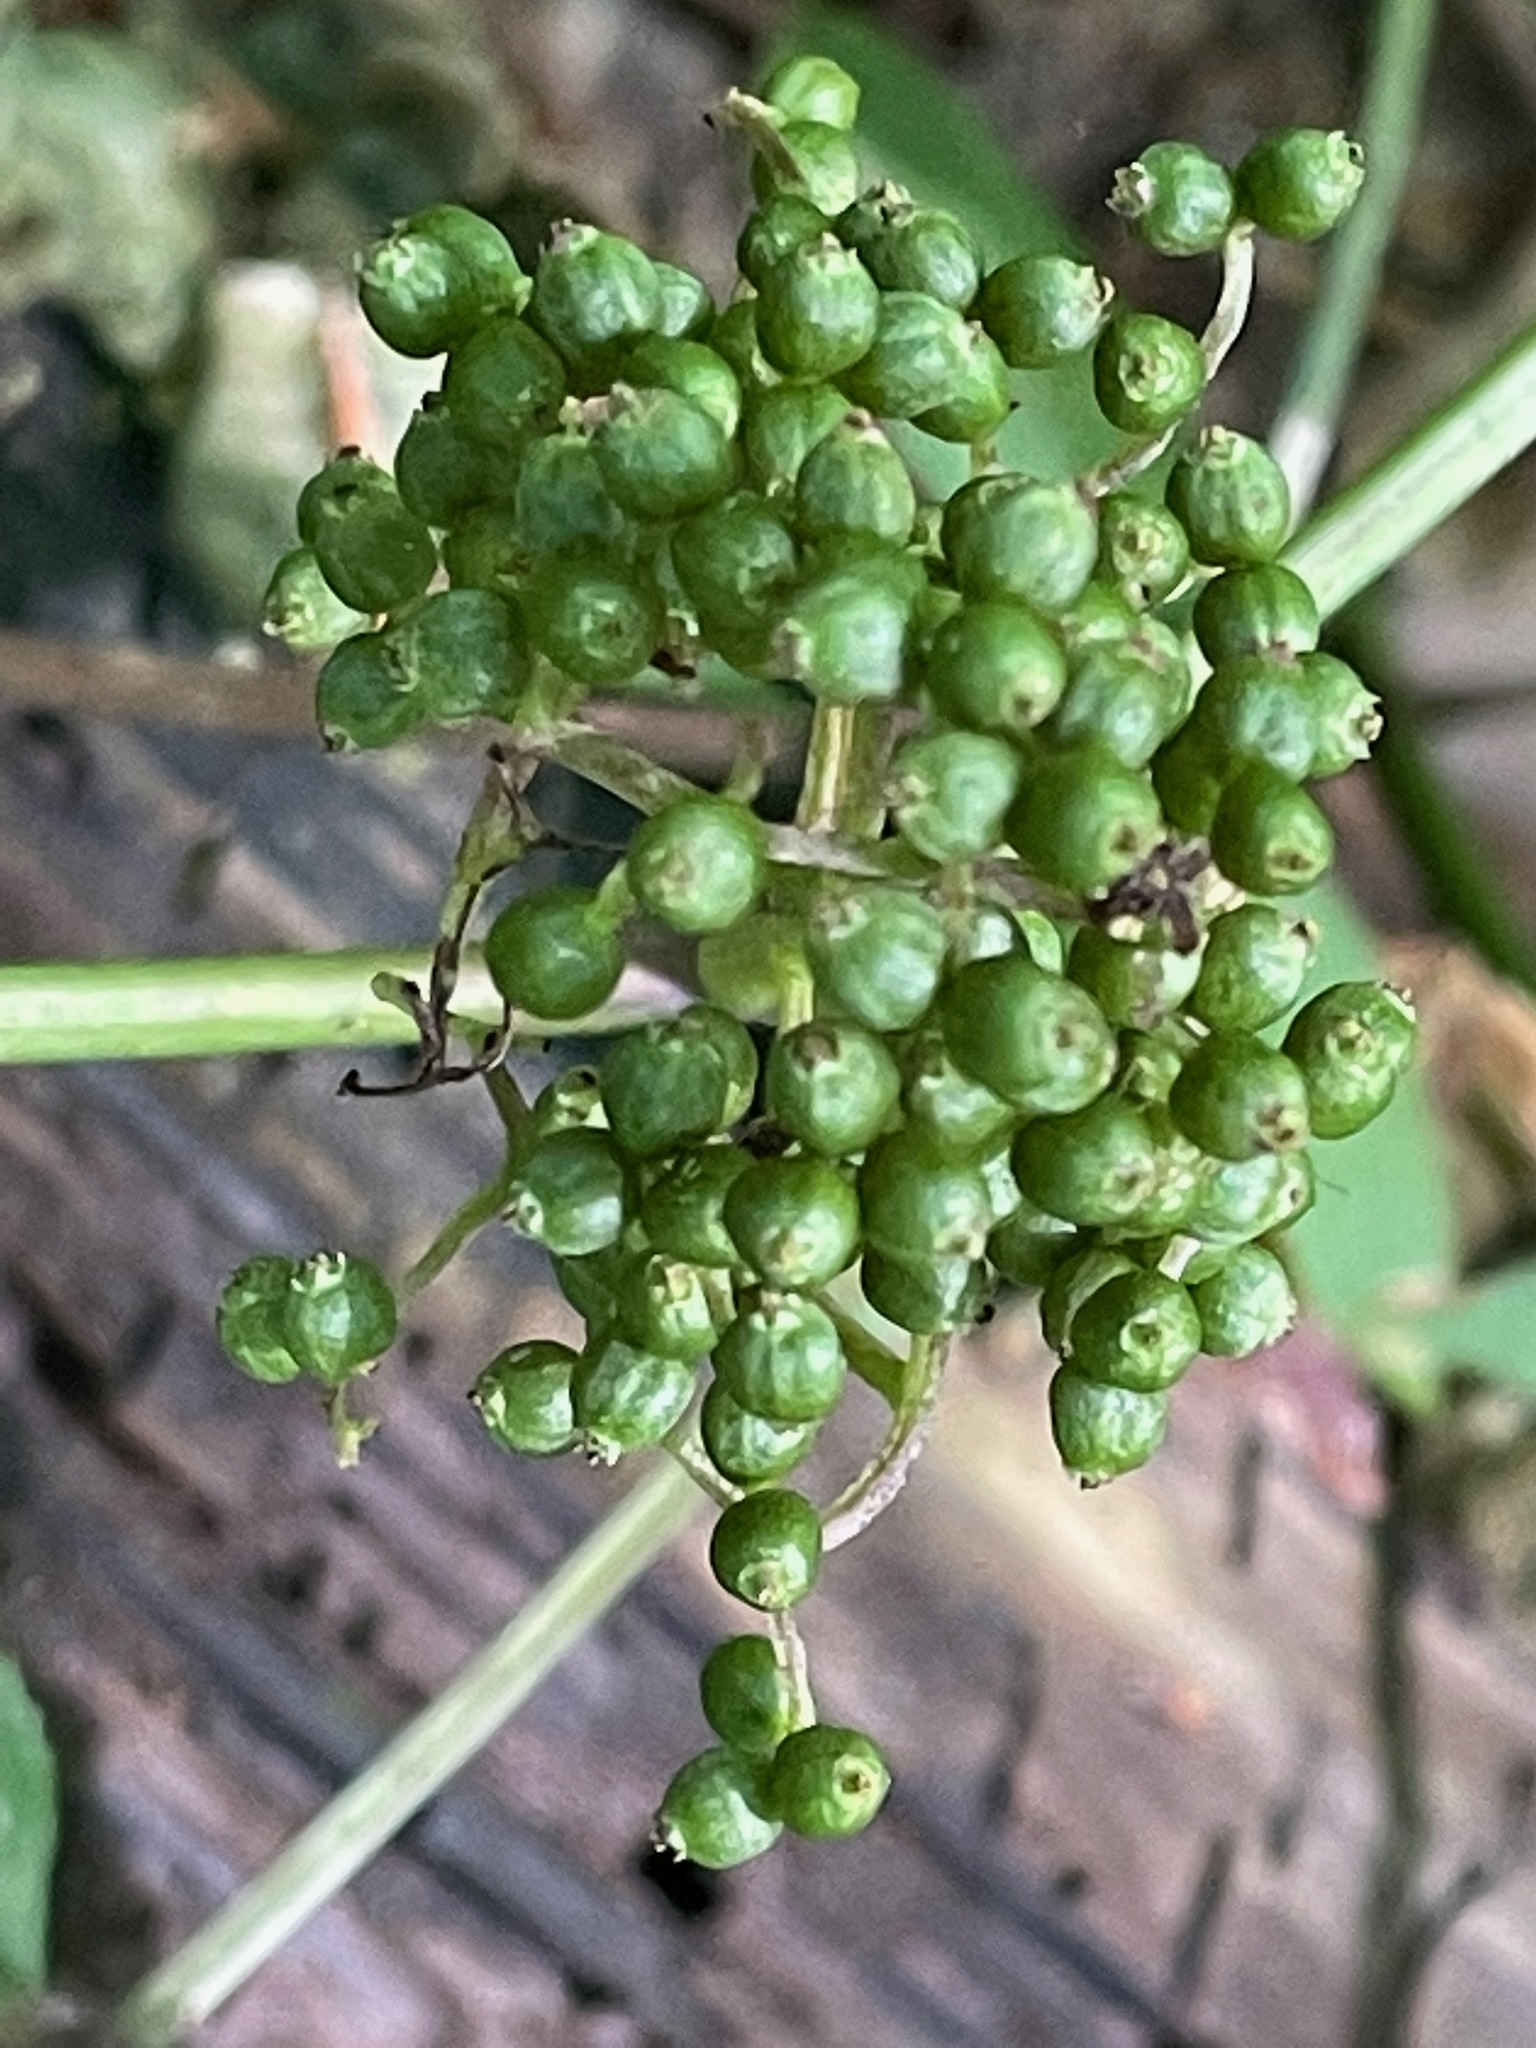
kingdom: Plantae
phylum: Tracheophyta
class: Magnoliopsida
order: Dipsacales
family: Viburnaceae
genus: Sambucus
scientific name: Sambucus racemosa
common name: Red-berried elder
